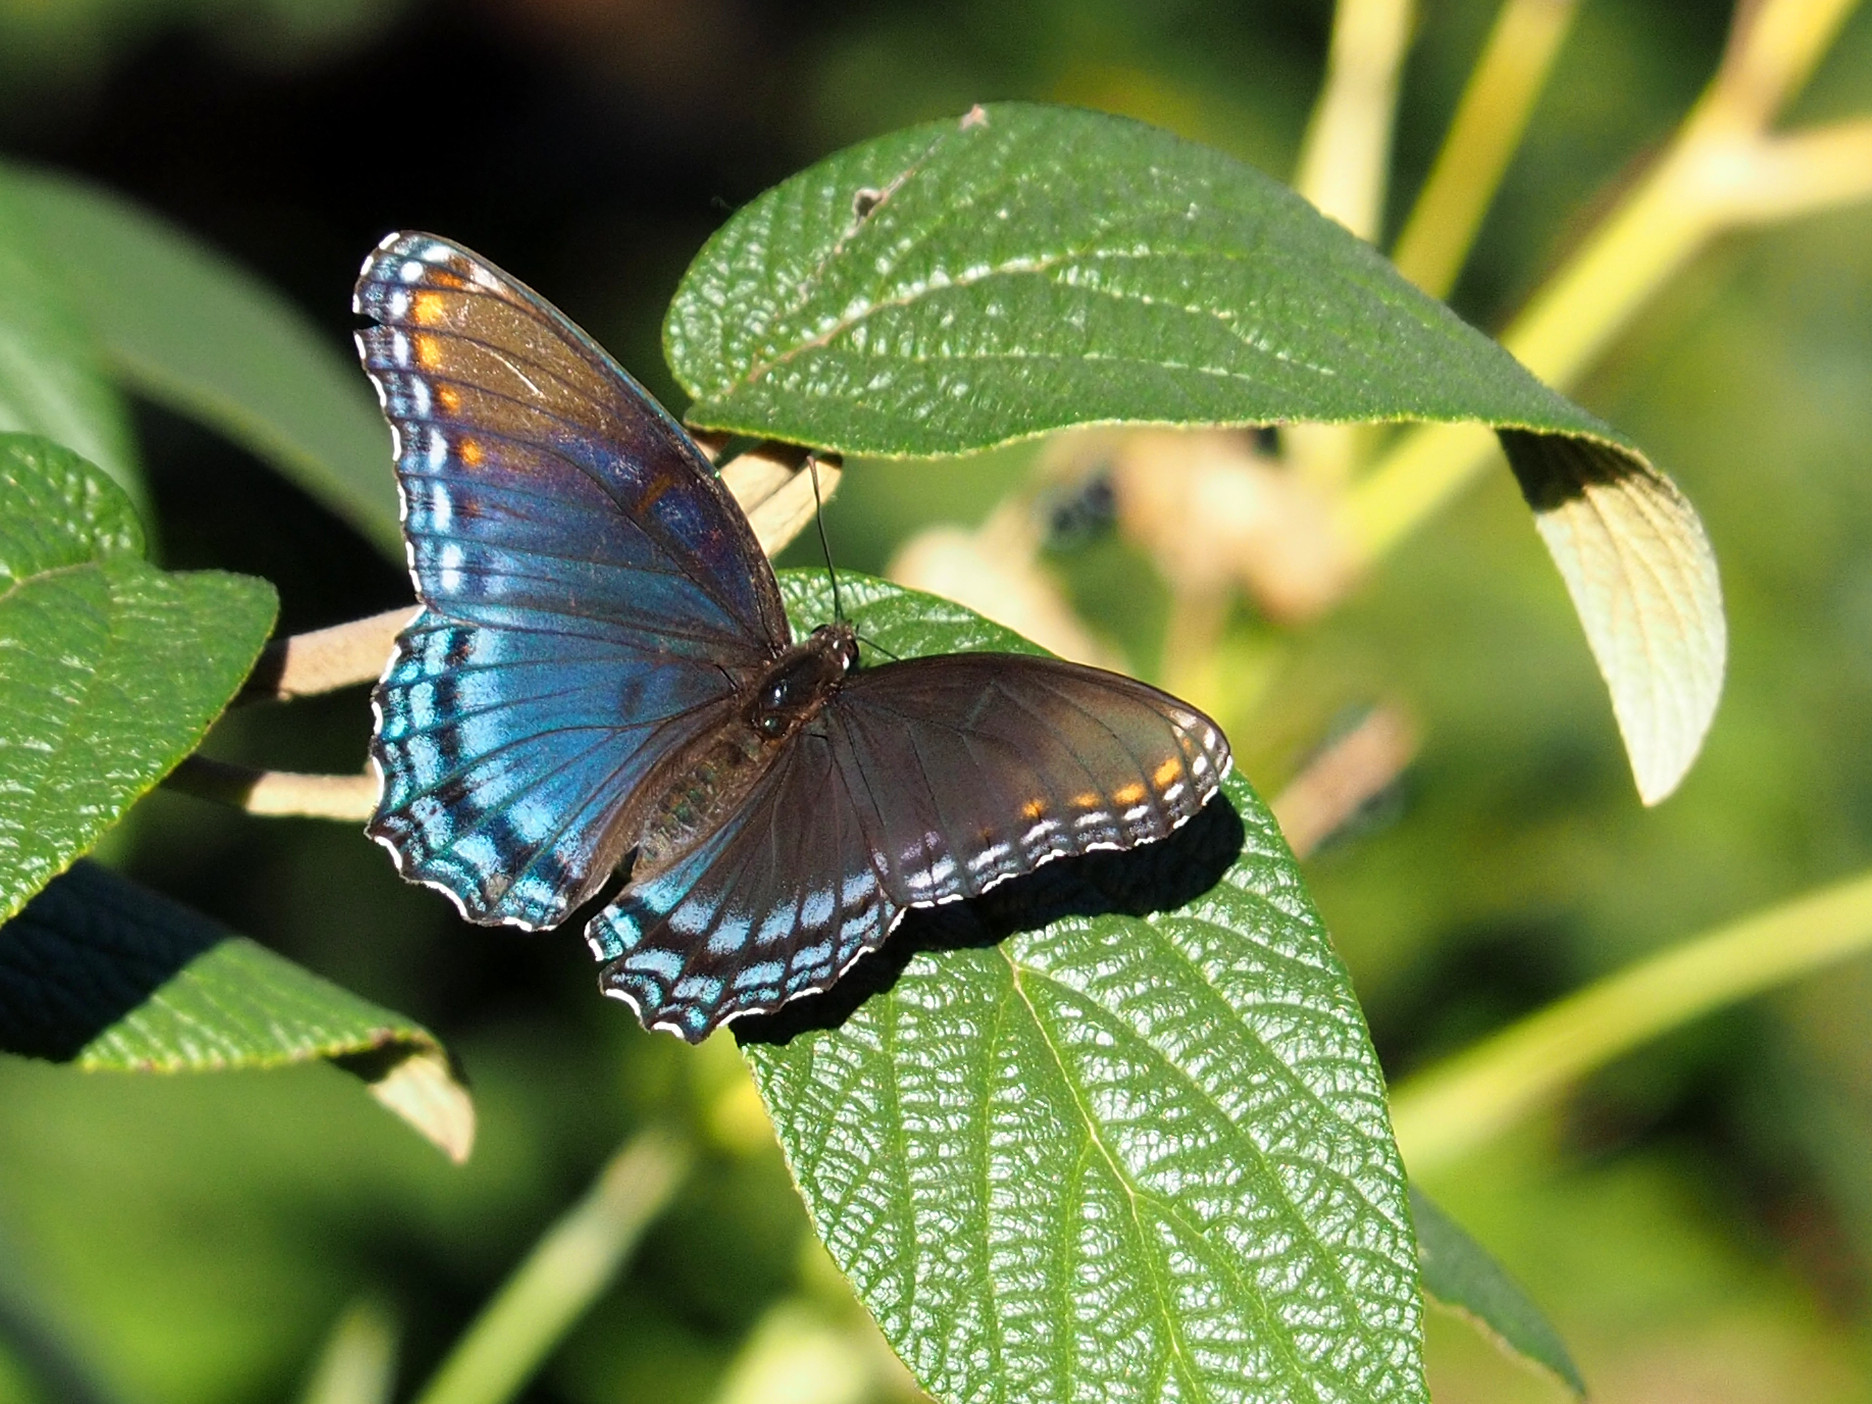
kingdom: Animalia
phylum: Arthropoda
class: Insecta
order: Lepidoptera
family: Nymphalidae
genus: Limenitis
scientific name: Limenitis astyanax
